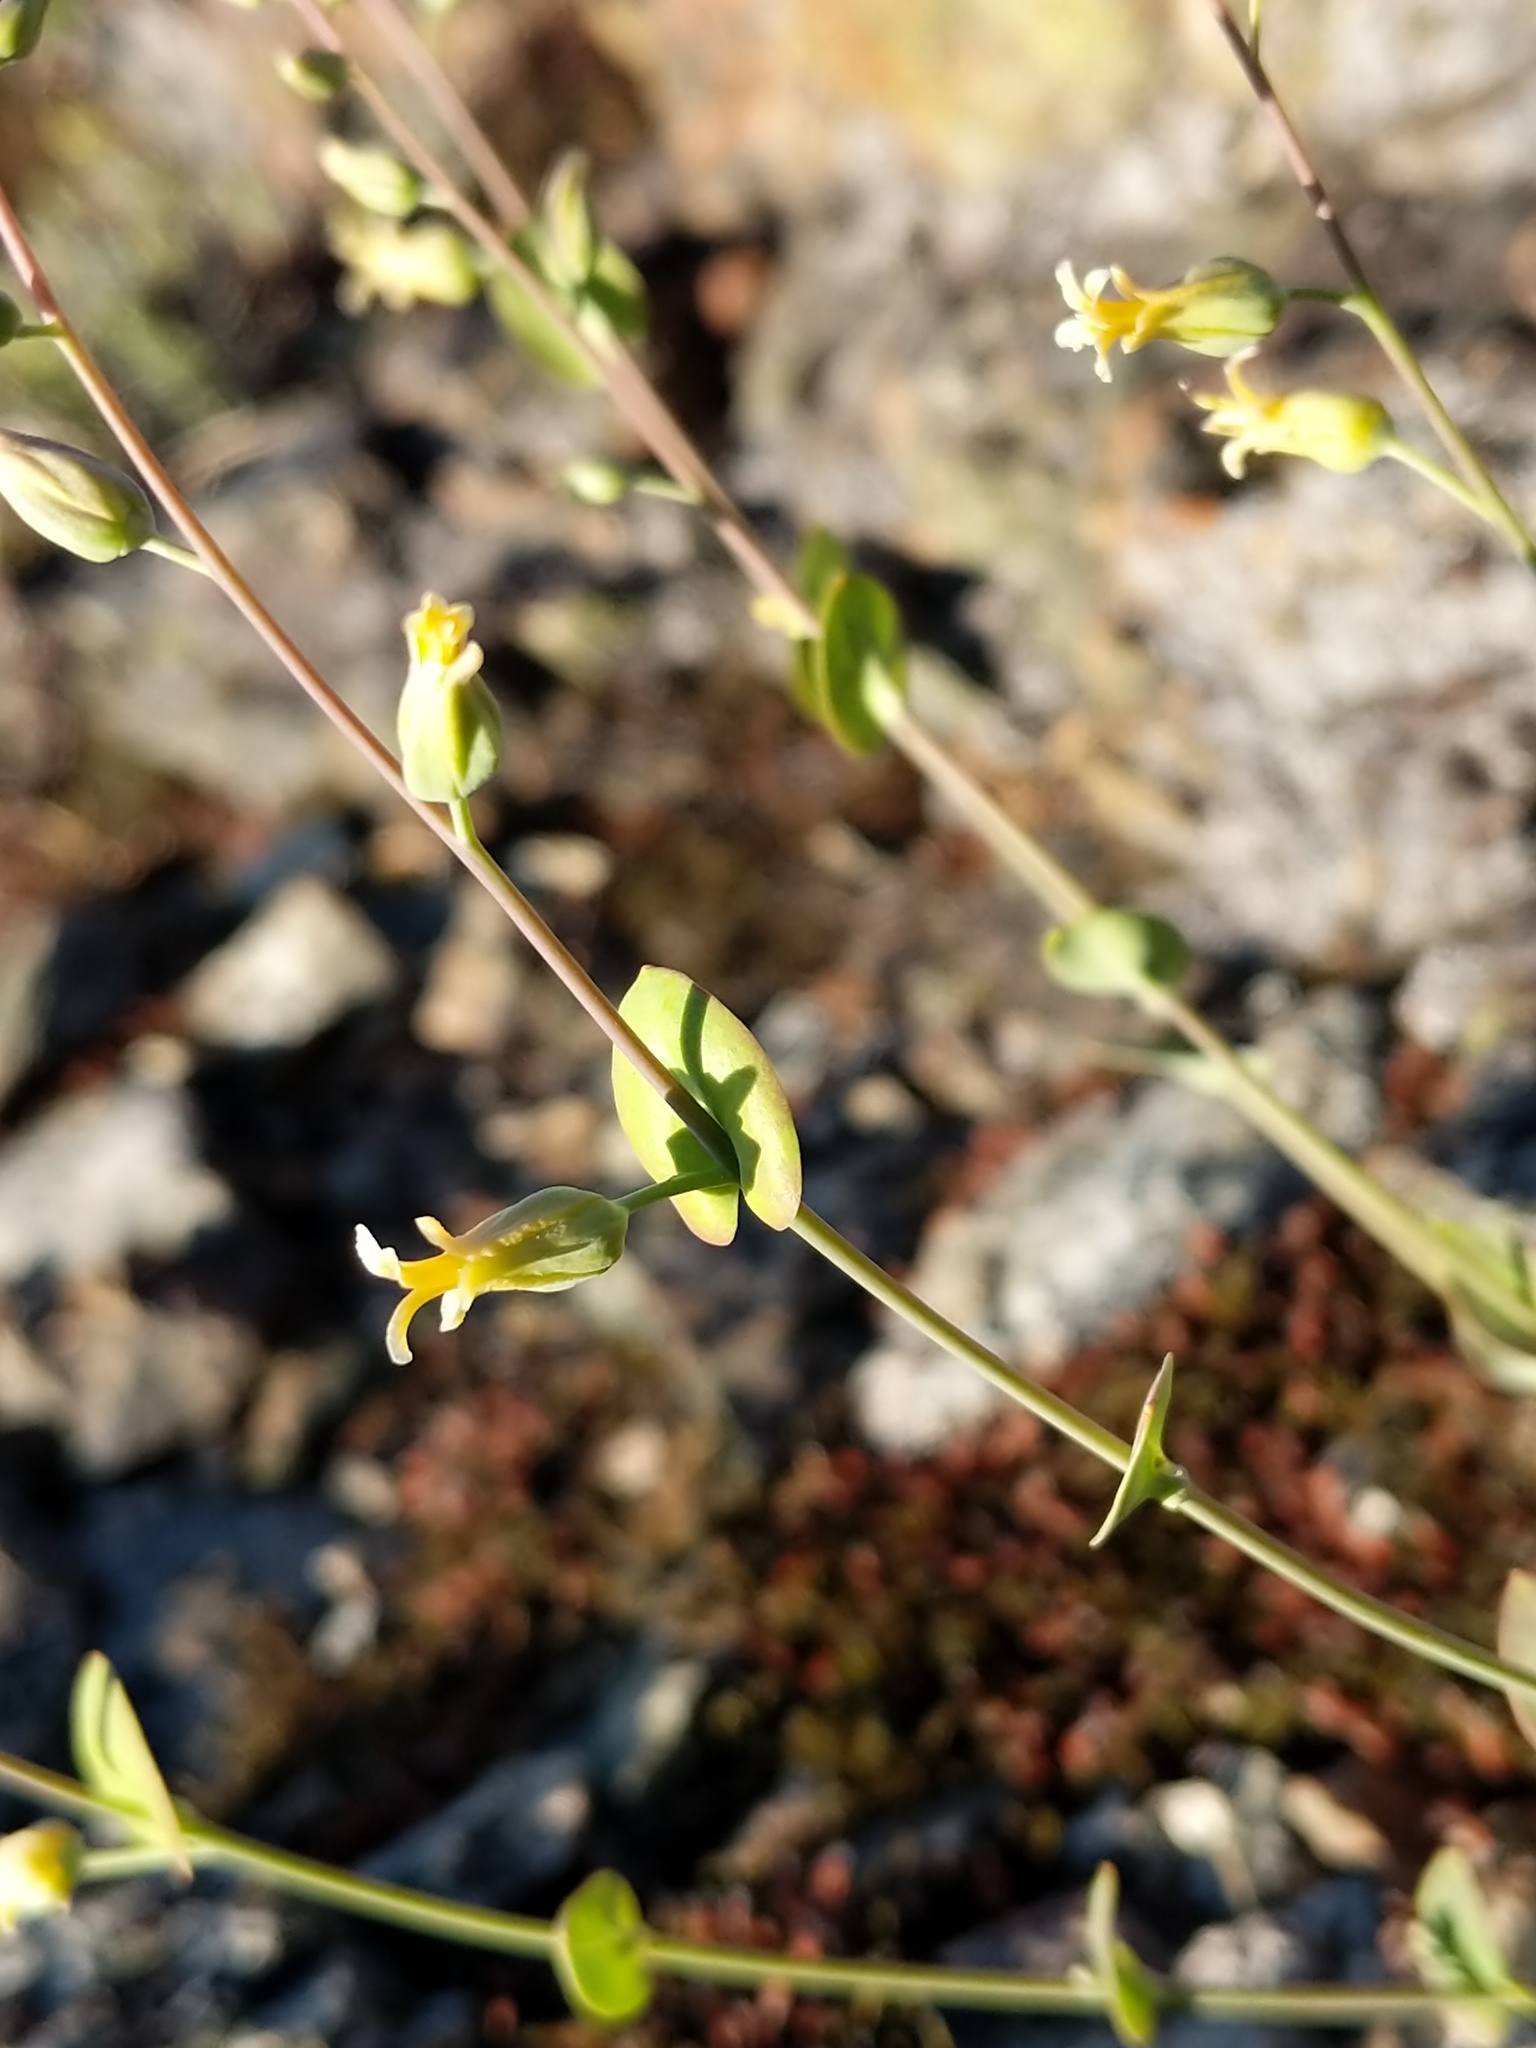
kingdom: Plantae
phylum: Tracheophyta
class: Magnoliopsida
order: Brassicales
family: Brassicaceae
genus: Streptanthus
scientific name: Streptanthus tortuosus
